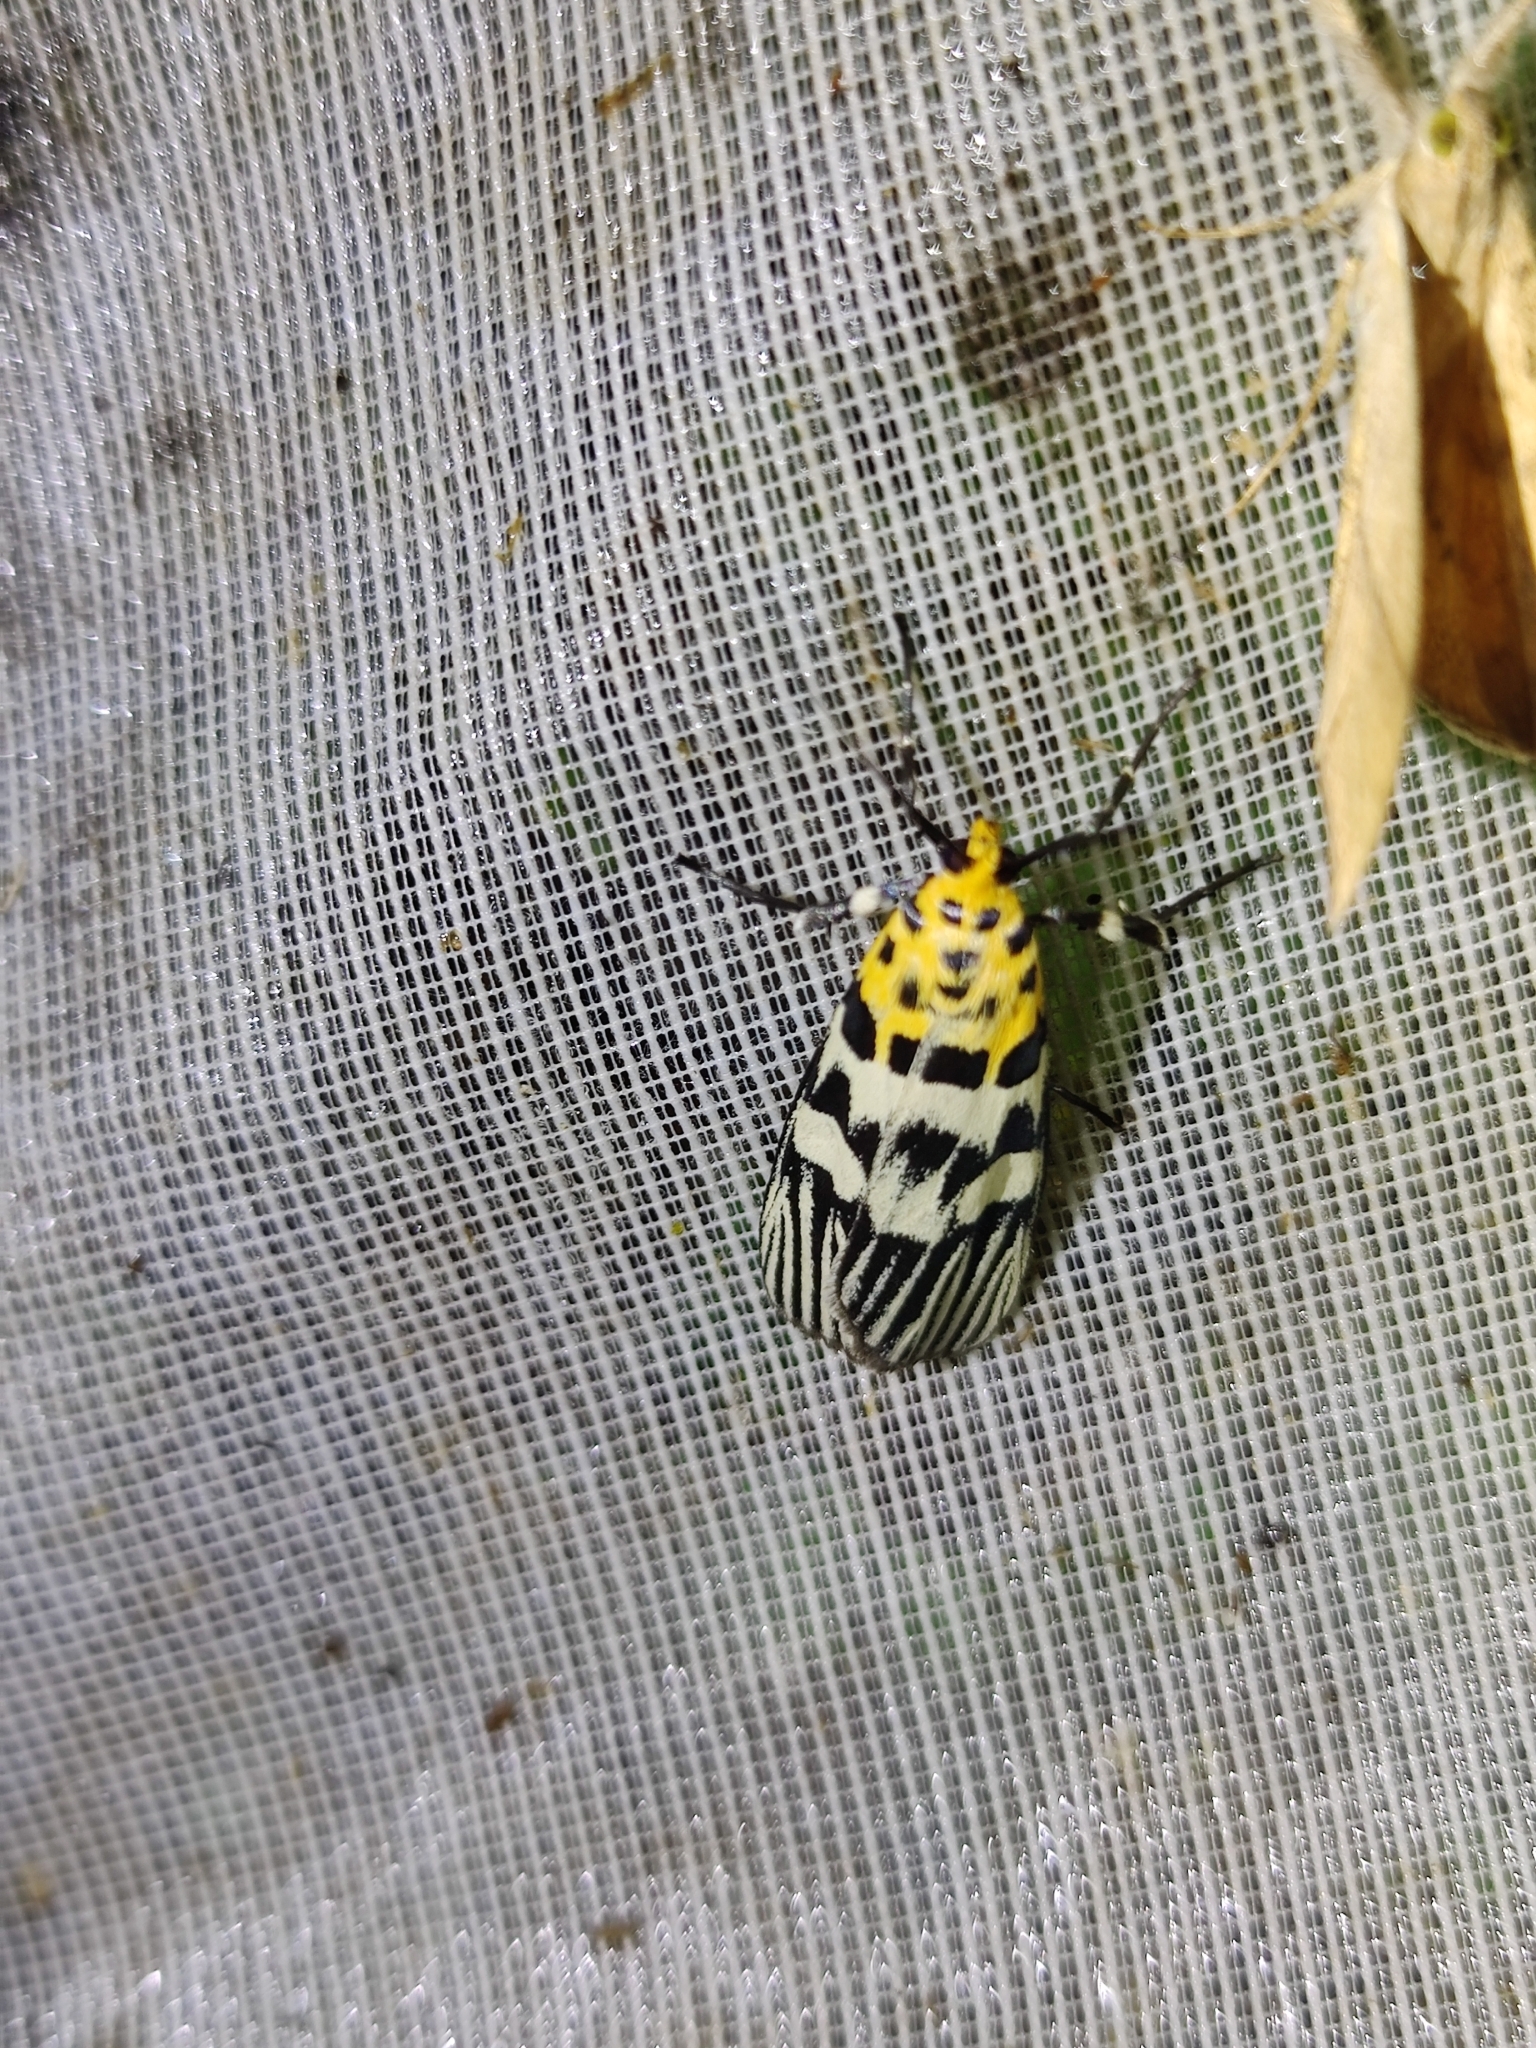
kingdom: Animalia
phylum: Arthropoda
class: Insecta
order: Lepidoptera
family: Pyralidae
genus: Vitessa
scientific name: Vitessa suradeva
